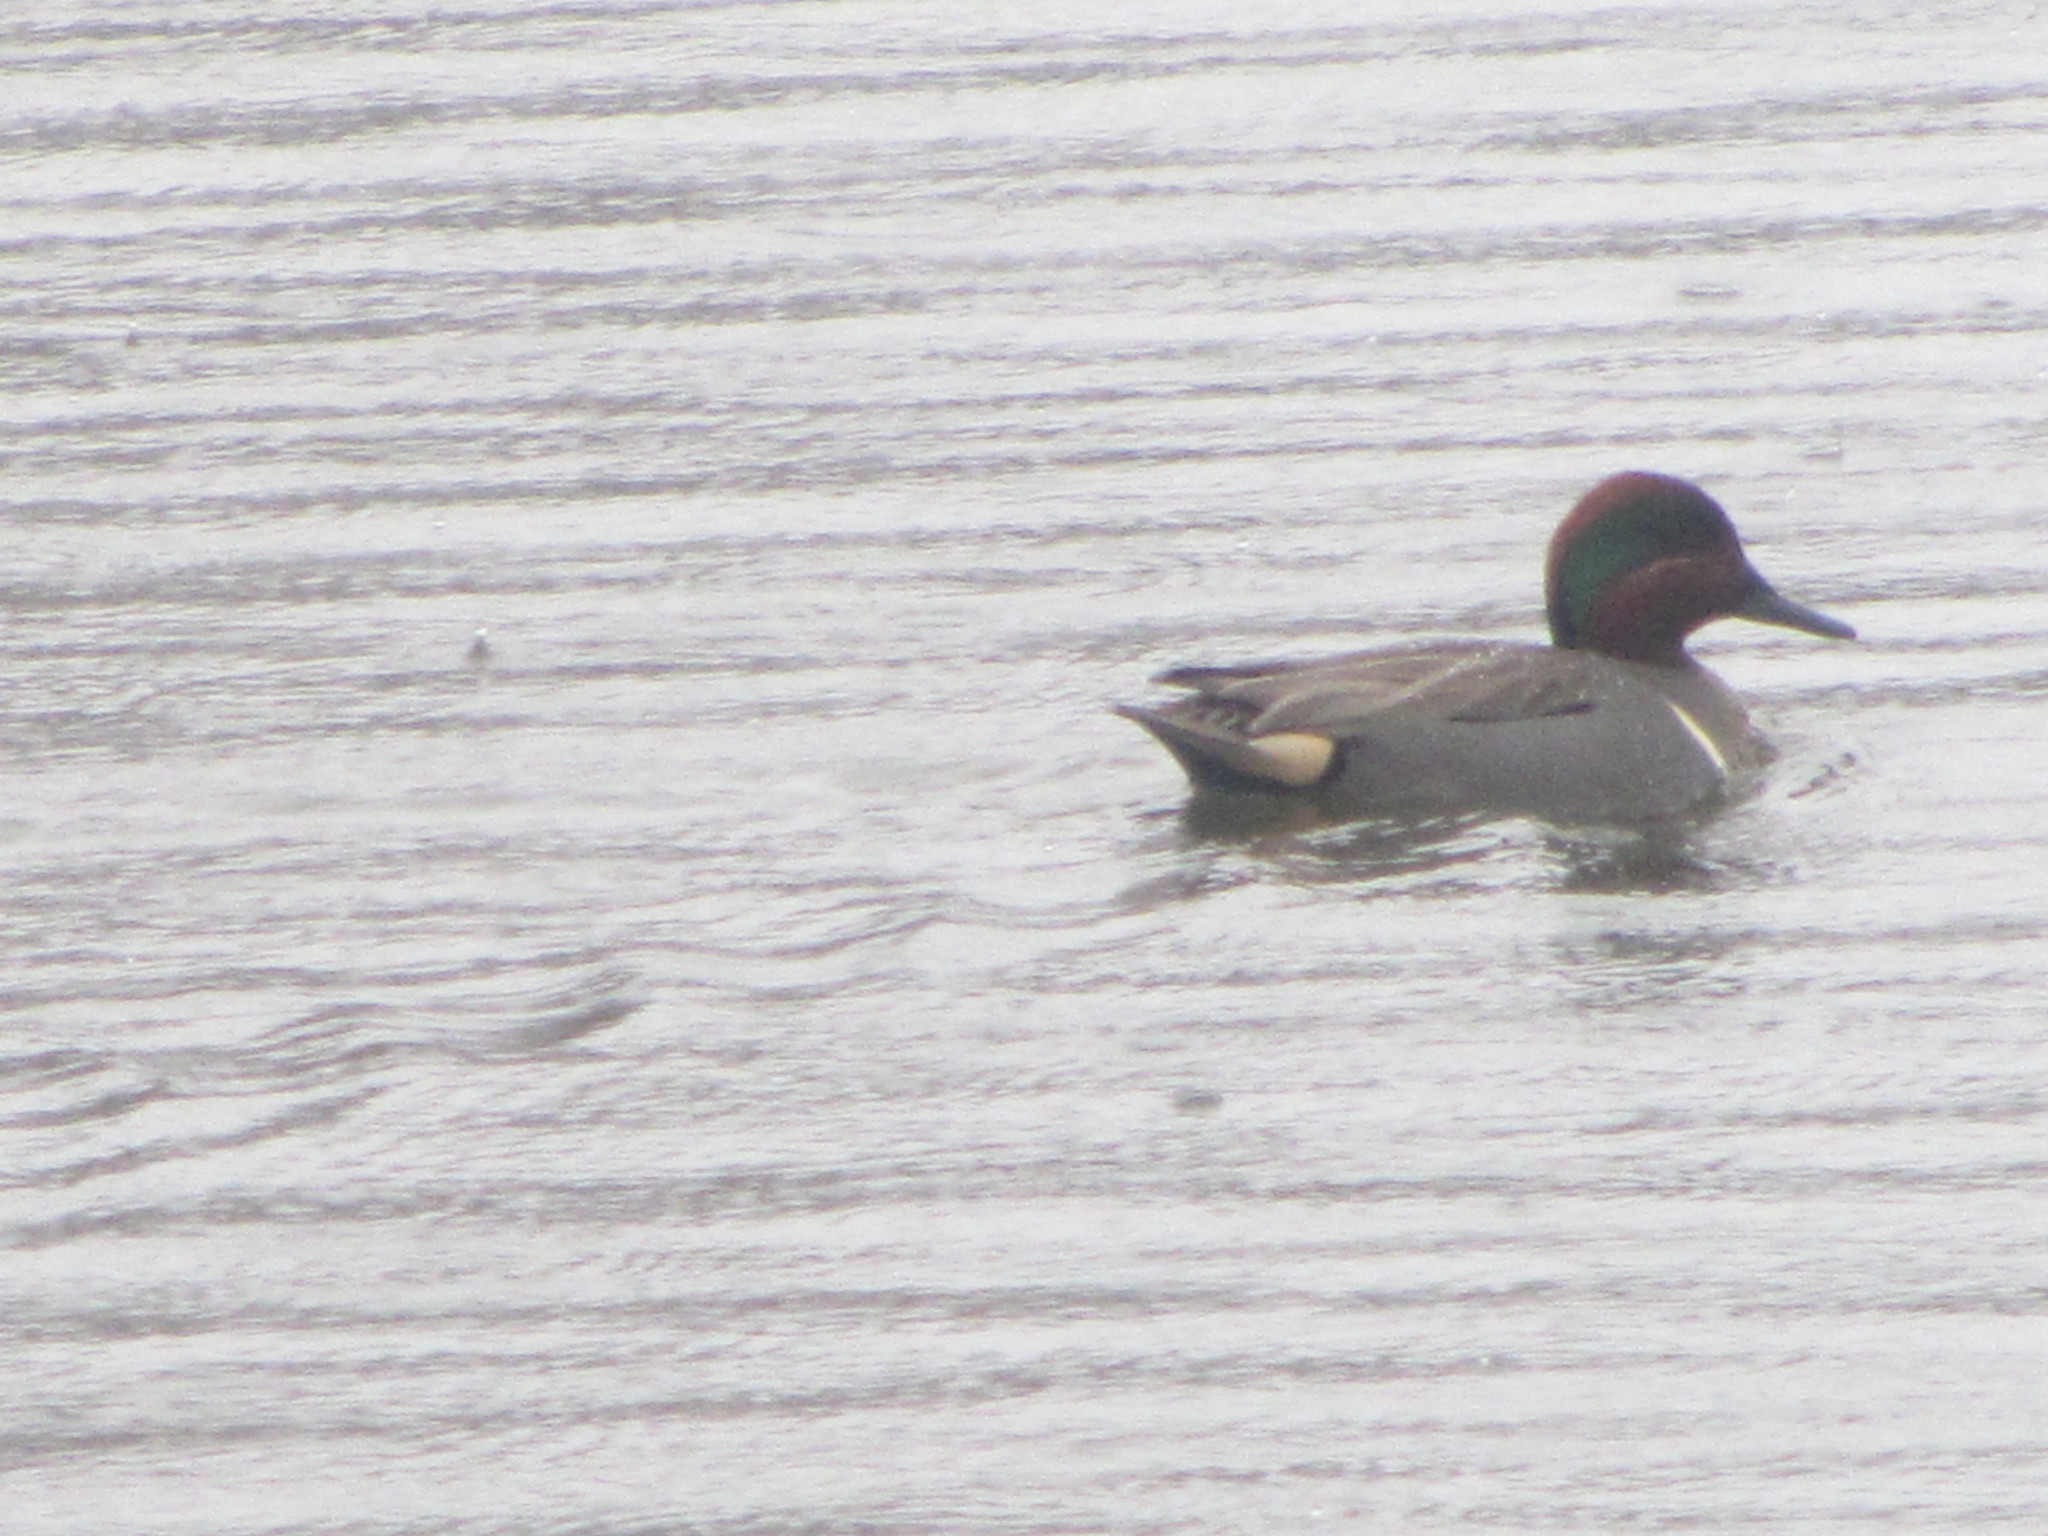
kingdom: Animalia
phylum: Chordata
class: Aves
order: Anseriformes
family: Anatidae
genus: Anas
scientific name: Anas crecca
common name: Eurasian teal
